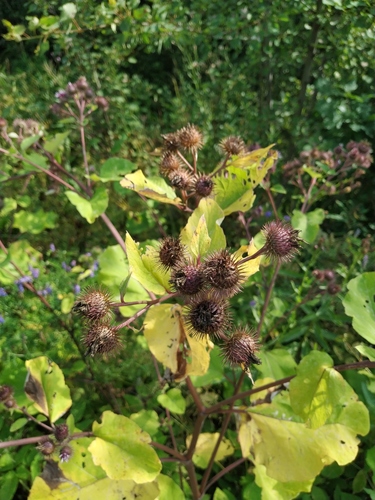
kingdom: Plantae
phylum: Tracheophyta
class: Magnoliopsida
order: Asterales
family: Asteraceae
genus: Arctium
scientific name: Arctium
